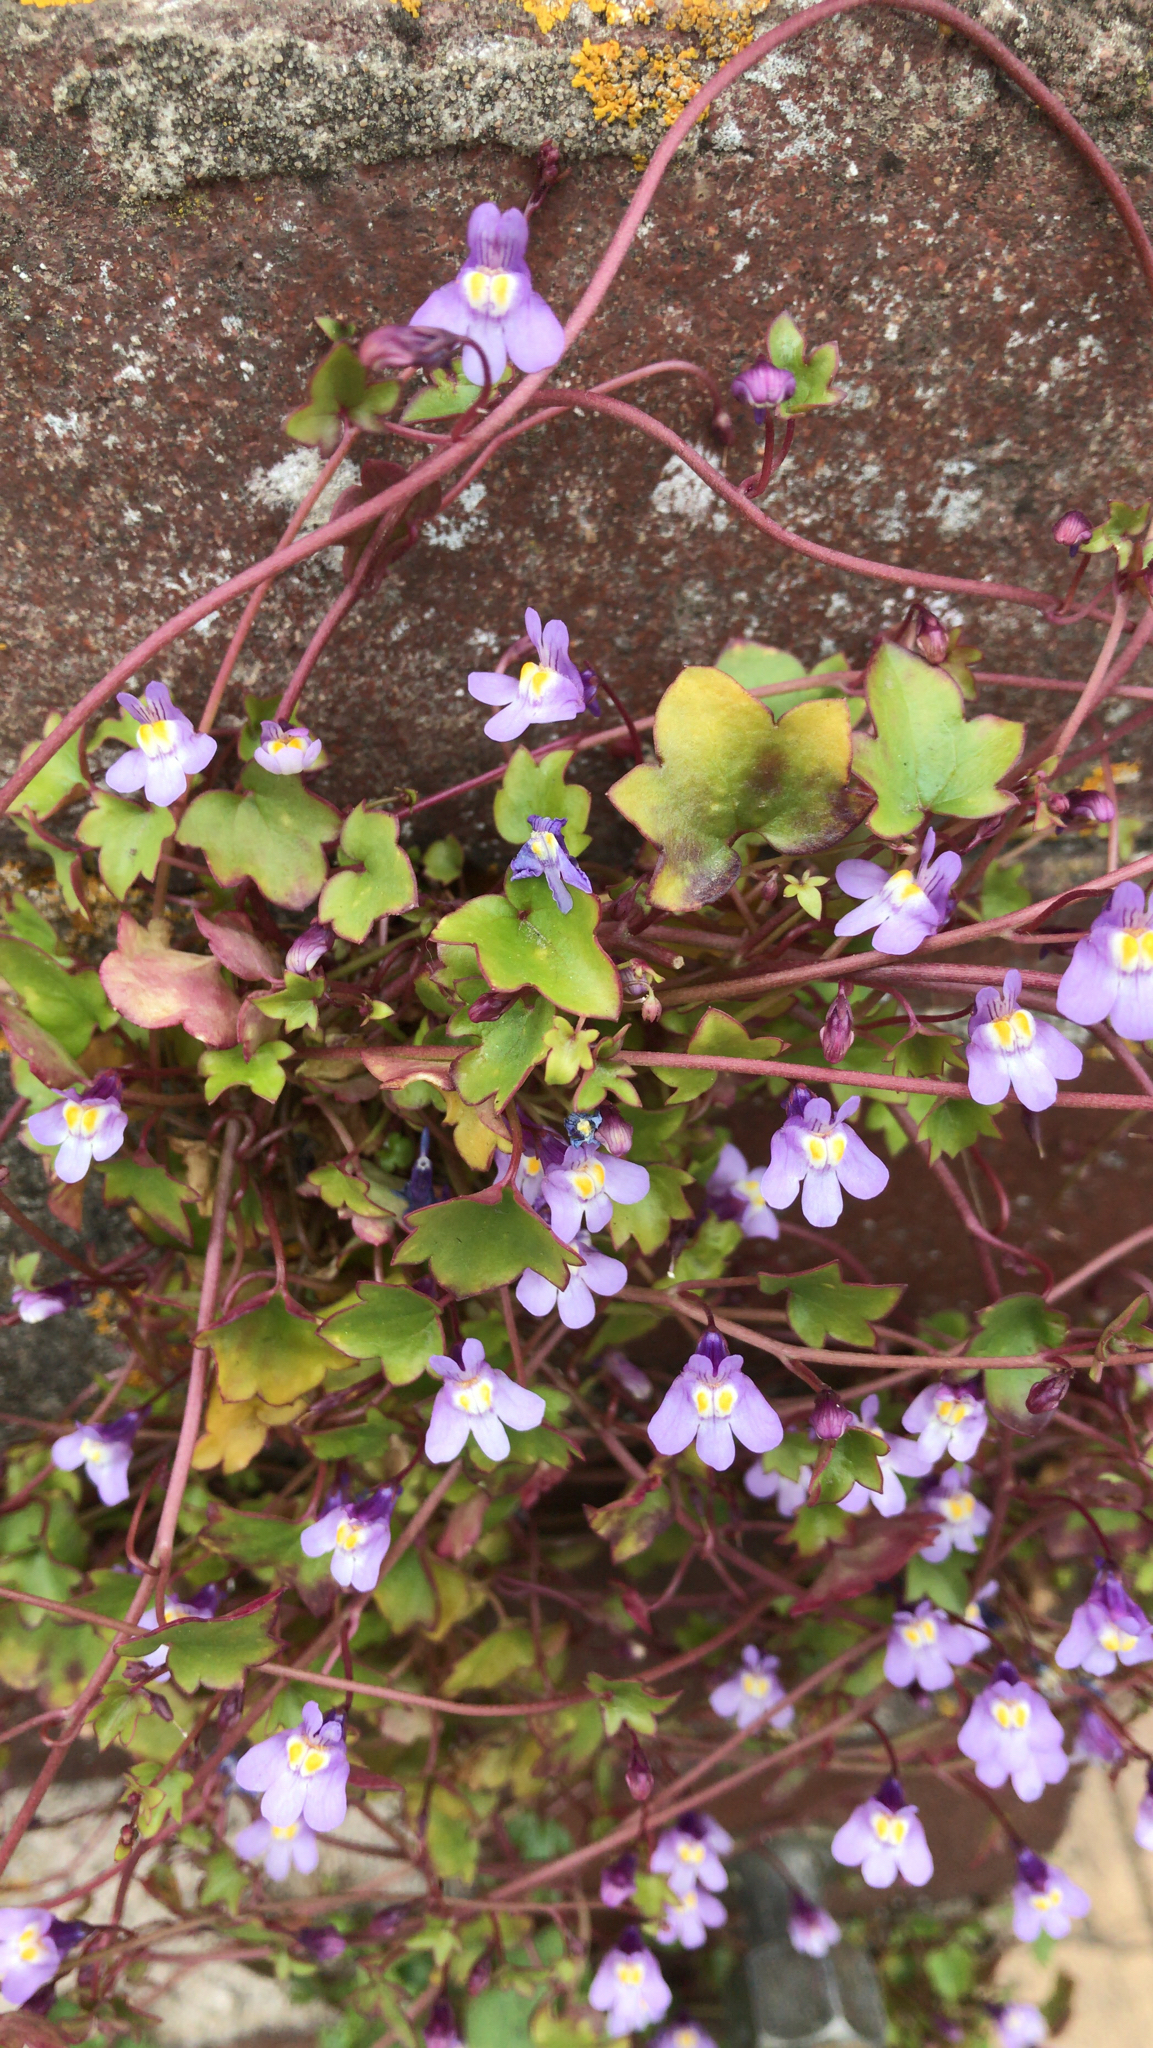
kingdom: Plantae
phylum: Tracheophyta
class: Magnoliopsida
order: Lamiales
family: Plantaginaceae
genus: Cymbalaria
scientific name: Cymbalaria muralis
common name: Ivy-leaved toadflax
